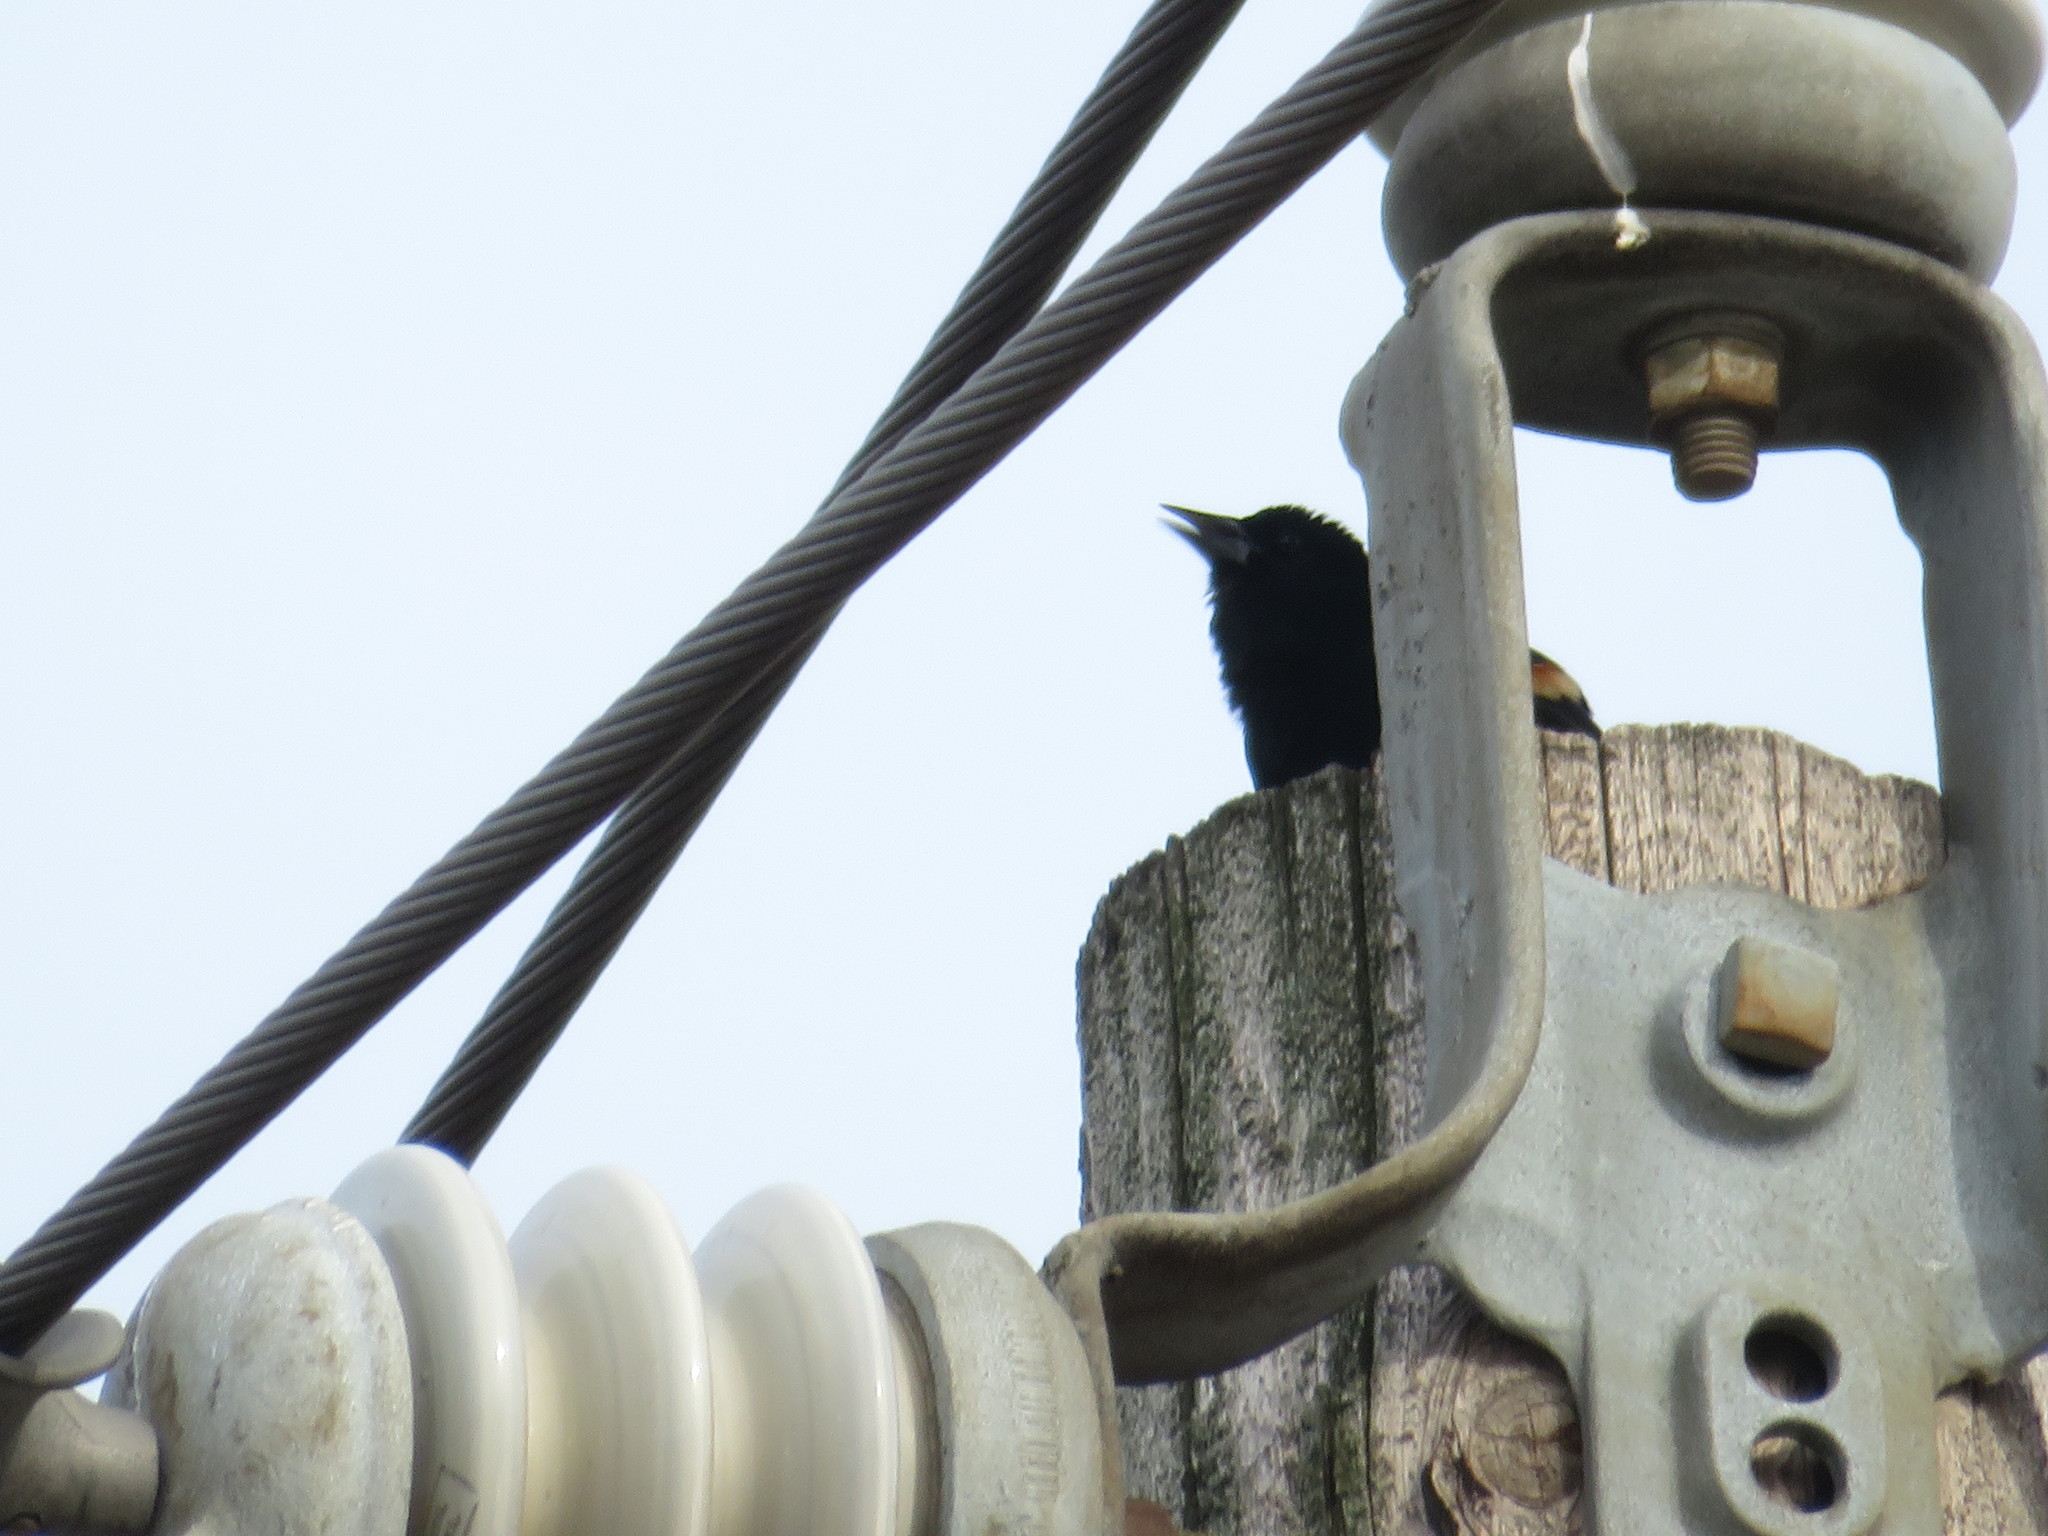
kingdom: Animalia
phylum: Chordata
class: Aves
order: Passeriformes
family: Icteridae
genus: Agelaius
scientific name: Agelaius phoeniceus
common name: Red-winged blackbird
